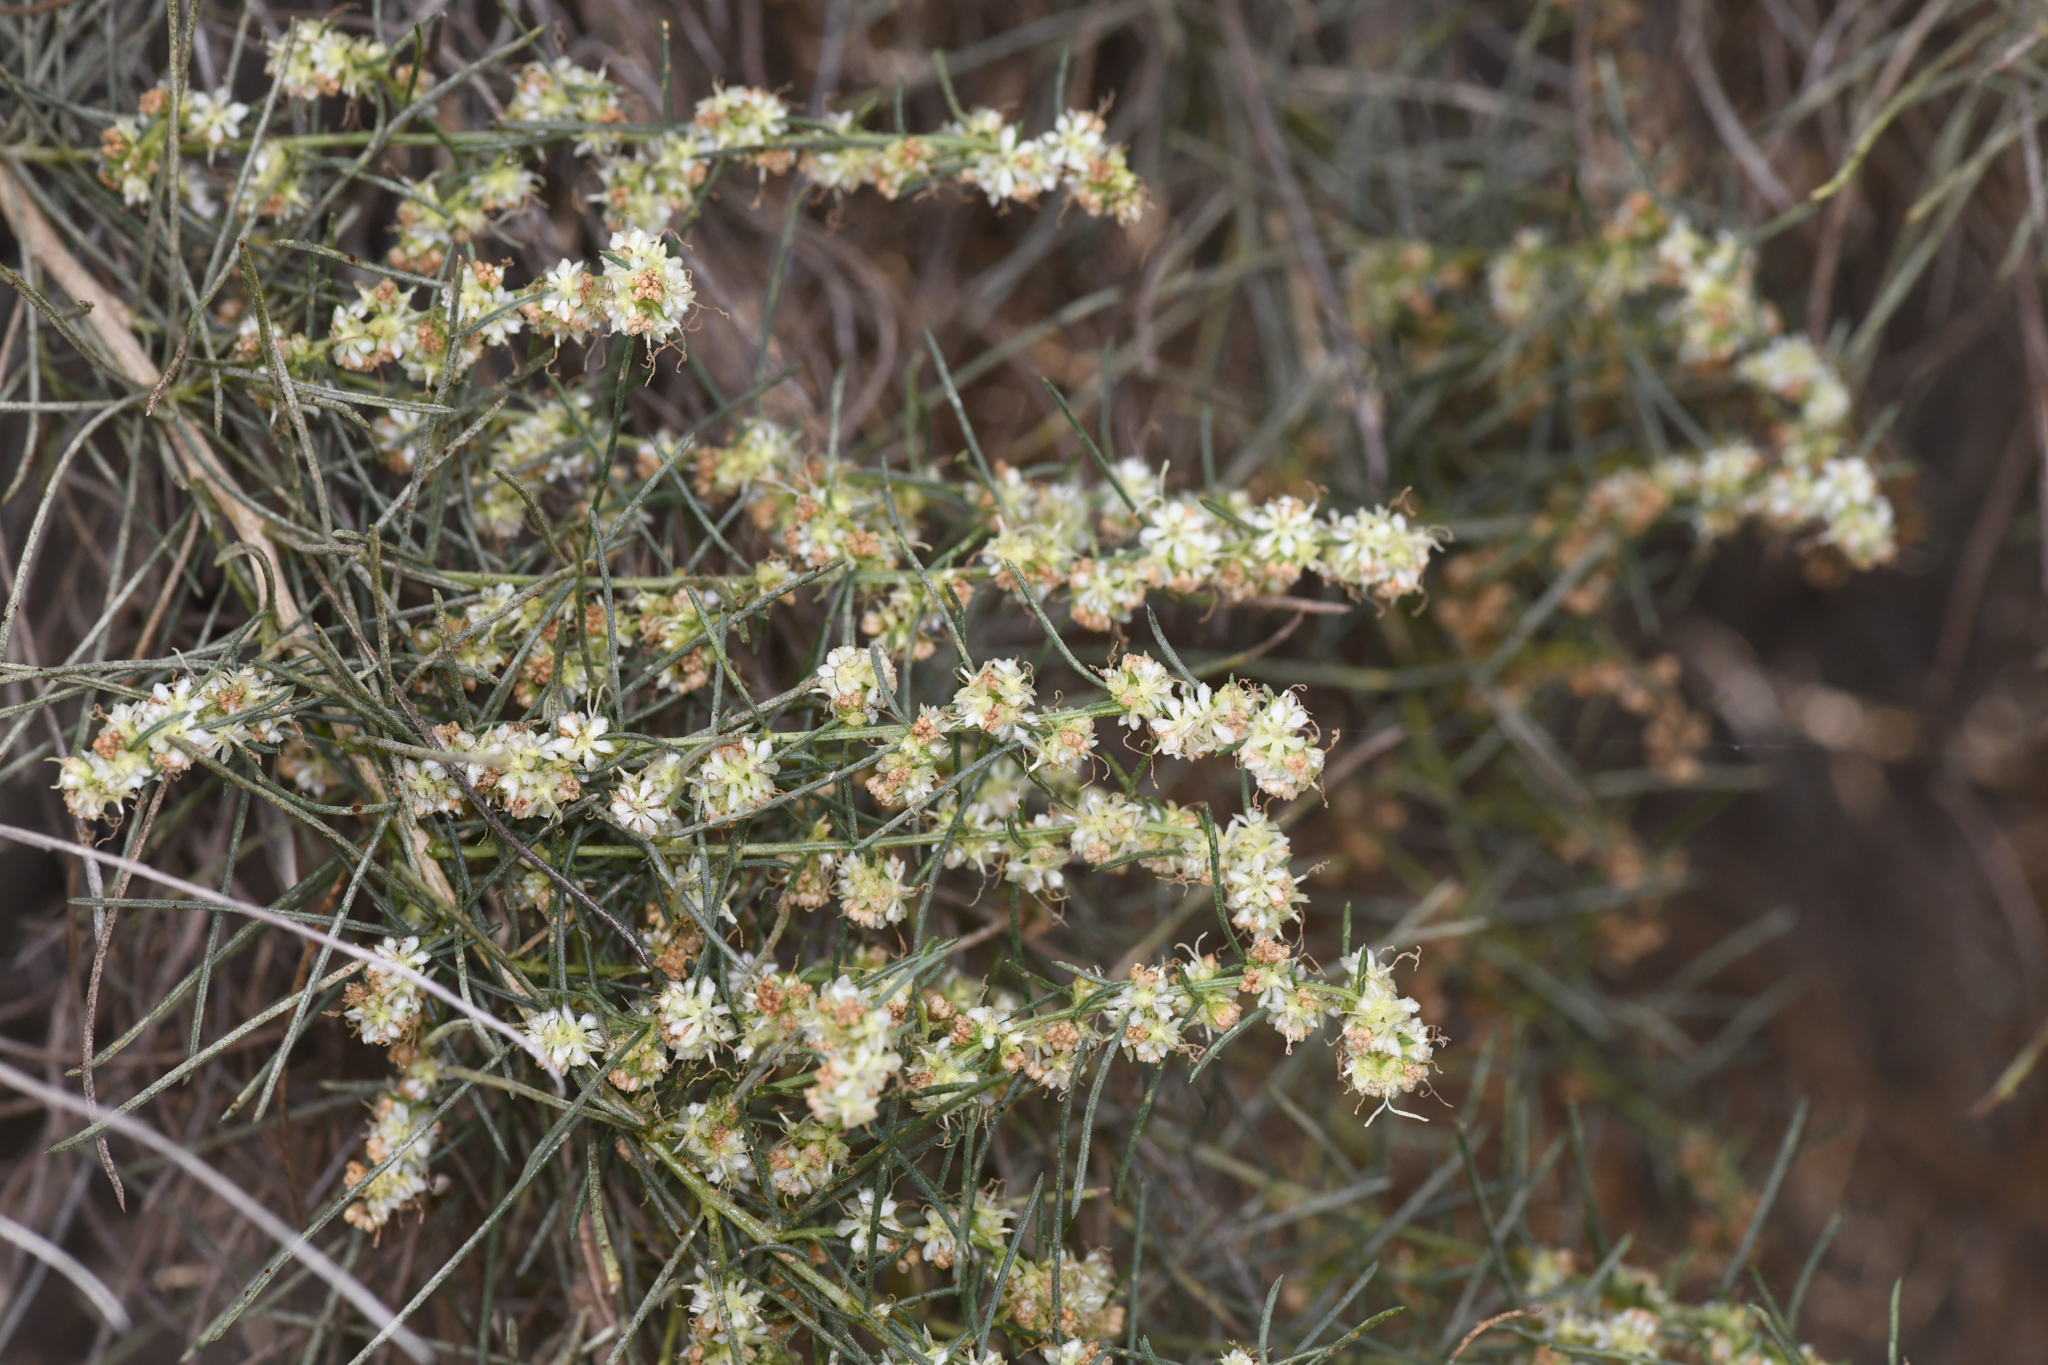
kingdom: Plantae
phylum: Tracheophyta
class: Magnoliopsida
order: Asterales
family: Asteraceae
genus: Ambrosia
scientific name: Ambrosia monogyra
